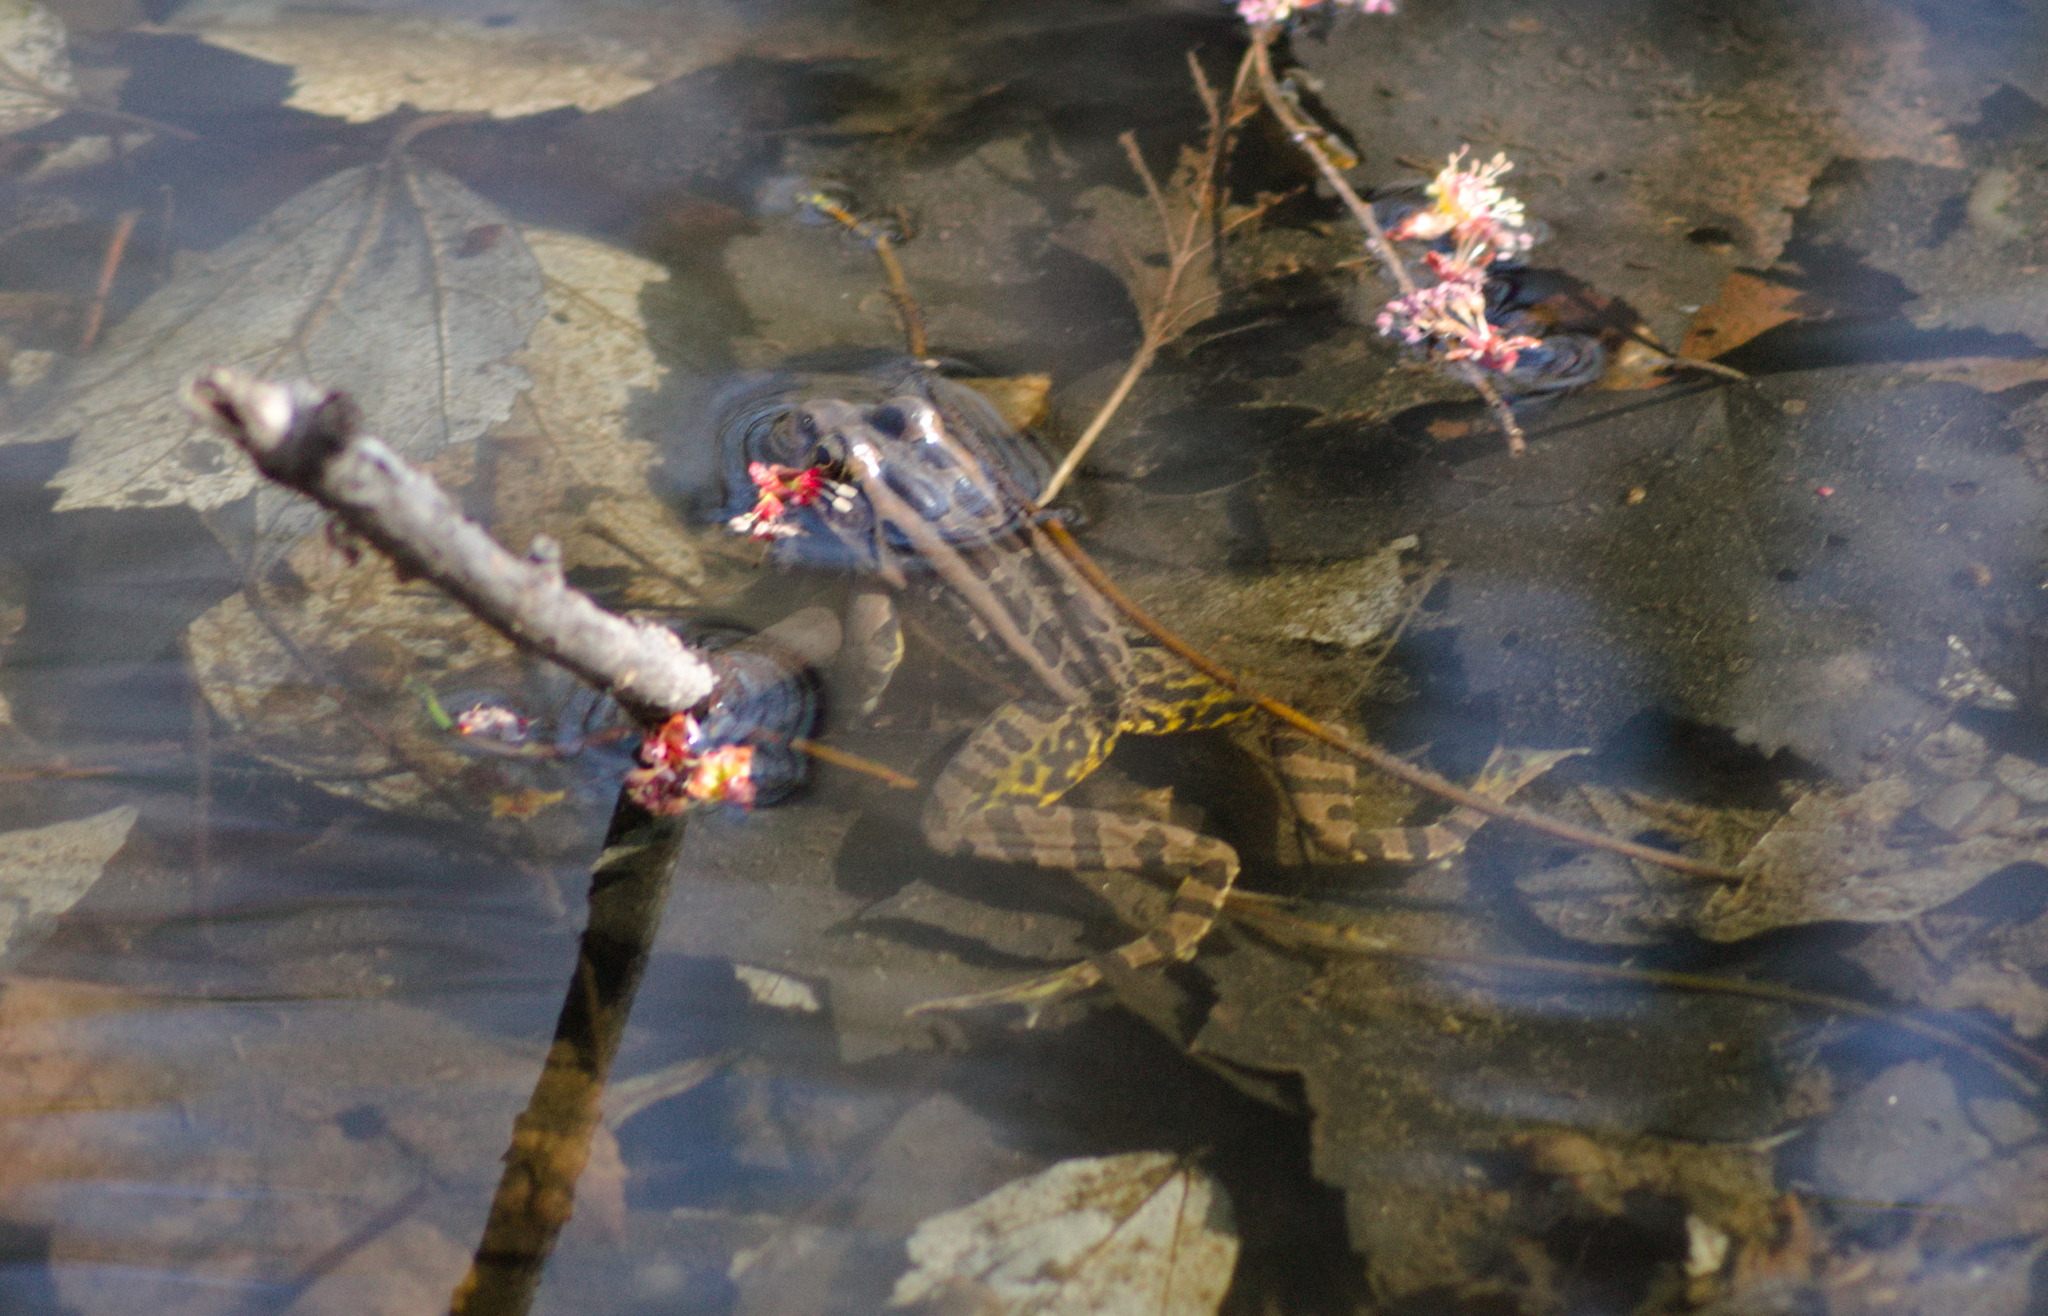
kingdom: Animalia
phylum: Chordata
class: Amphibia
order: Anura
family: Ranidae
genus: Lithobates
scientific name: Lithobates palustris
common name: Pickerel frog
